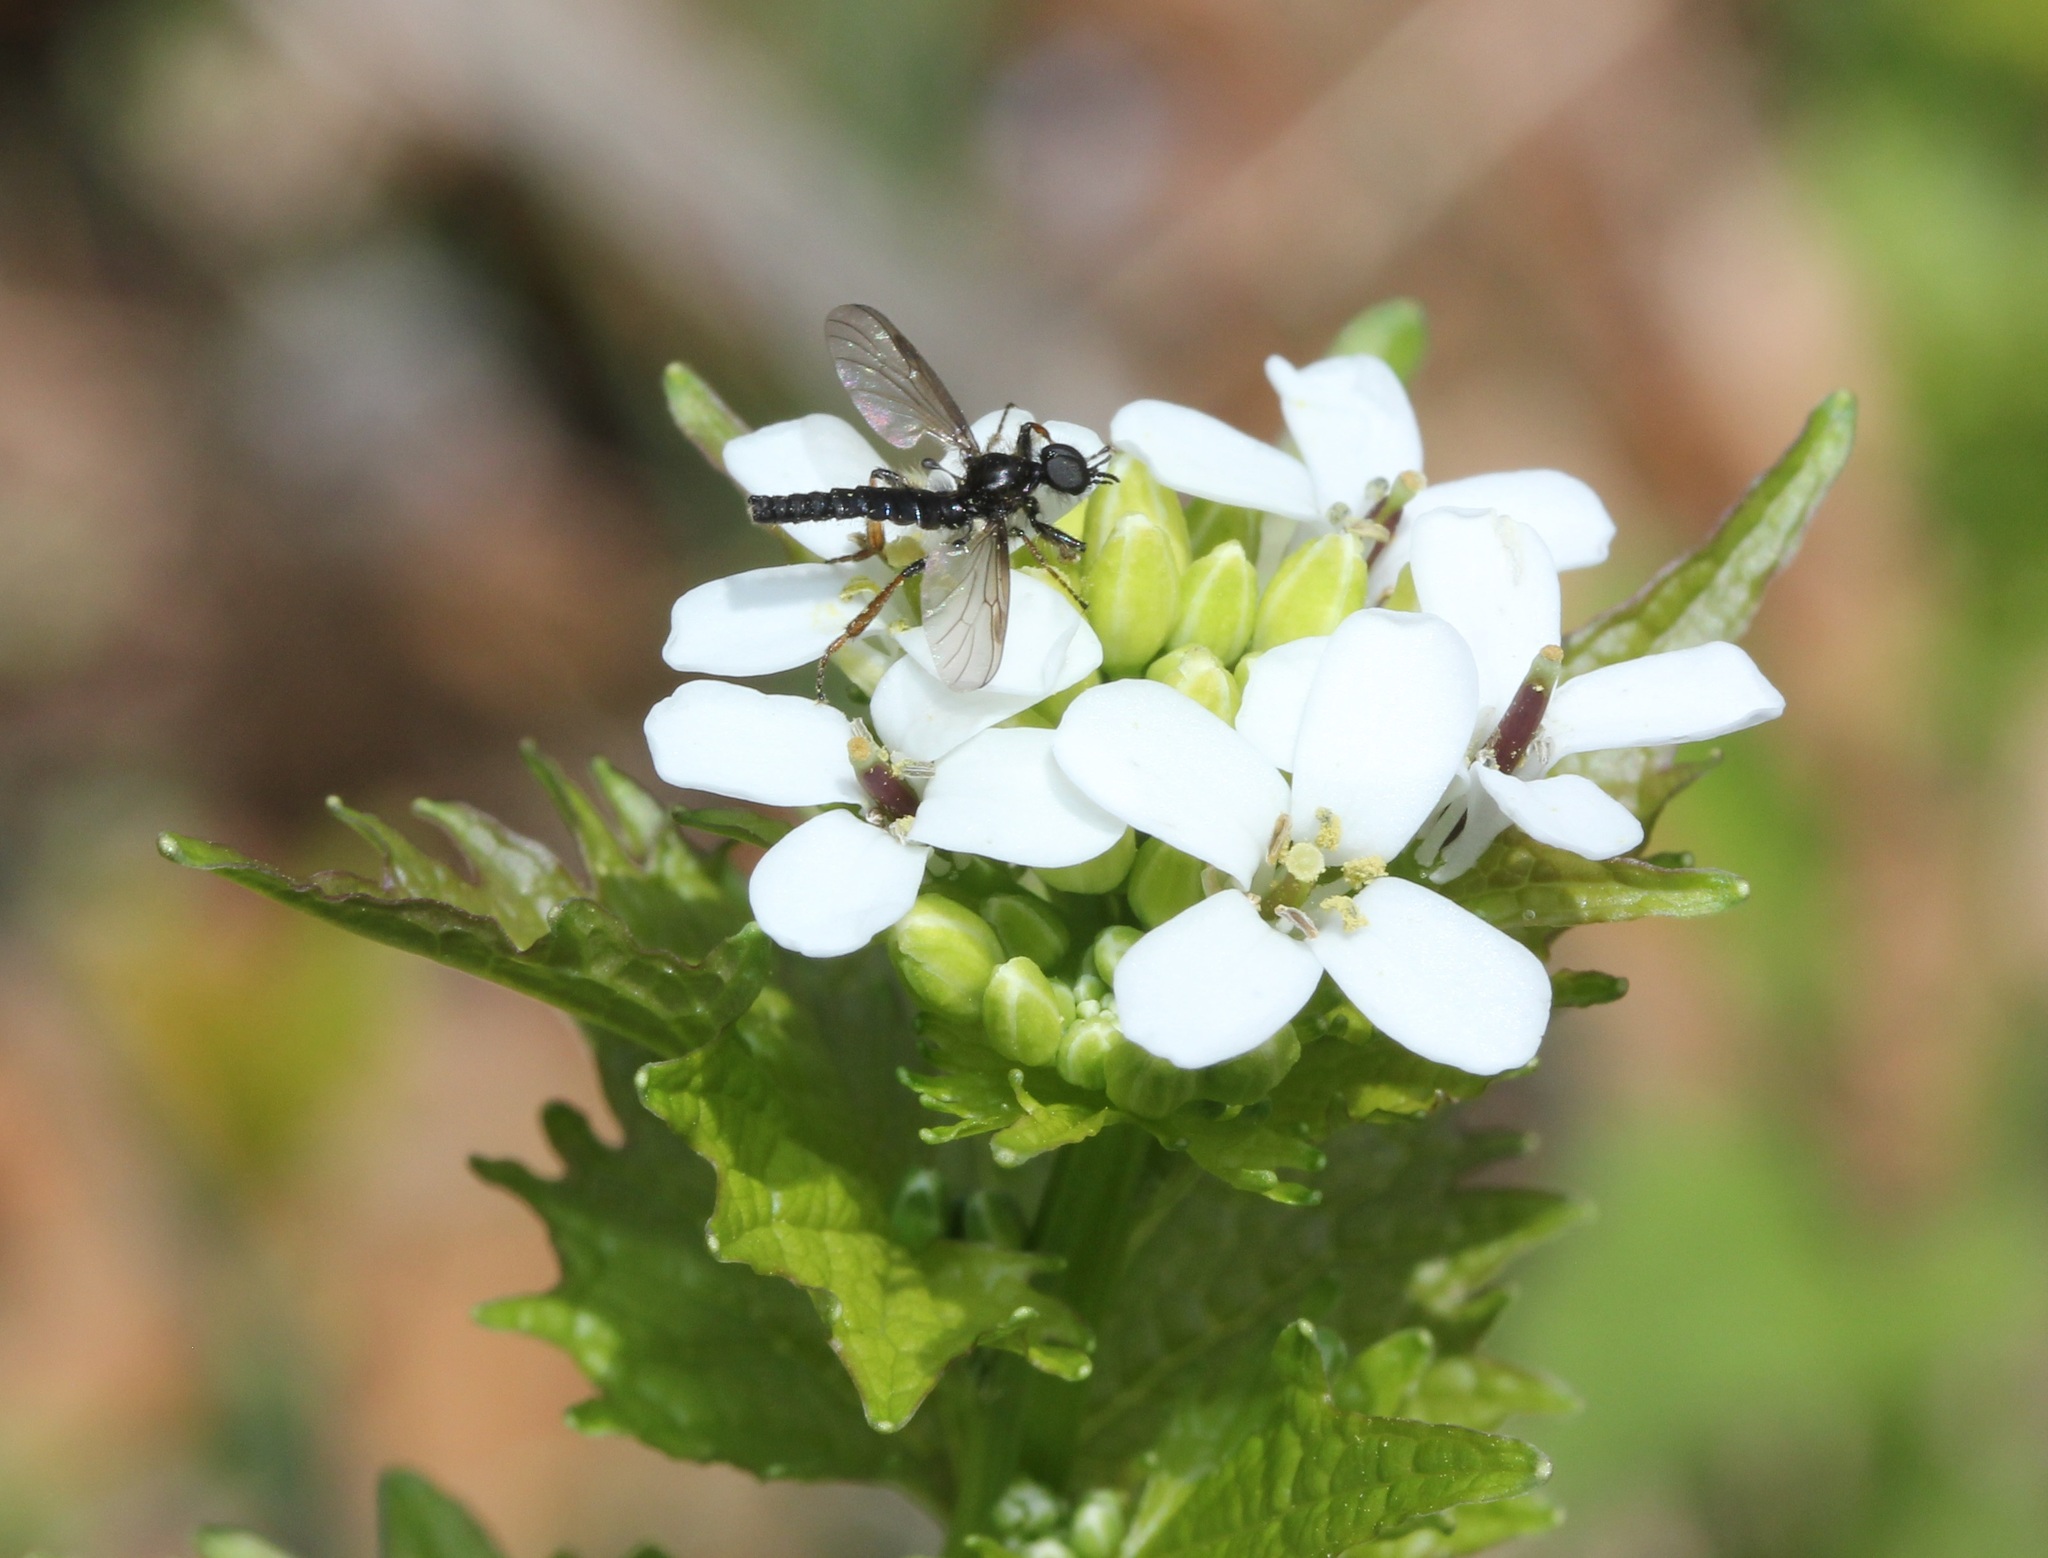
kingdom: Plantae
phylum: Tracheophyta
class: Magnoliopsida
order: Brassicales
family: Brassicaceae
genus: Alliaria
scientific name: Alliaria petiolata
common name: Garlic mustard
